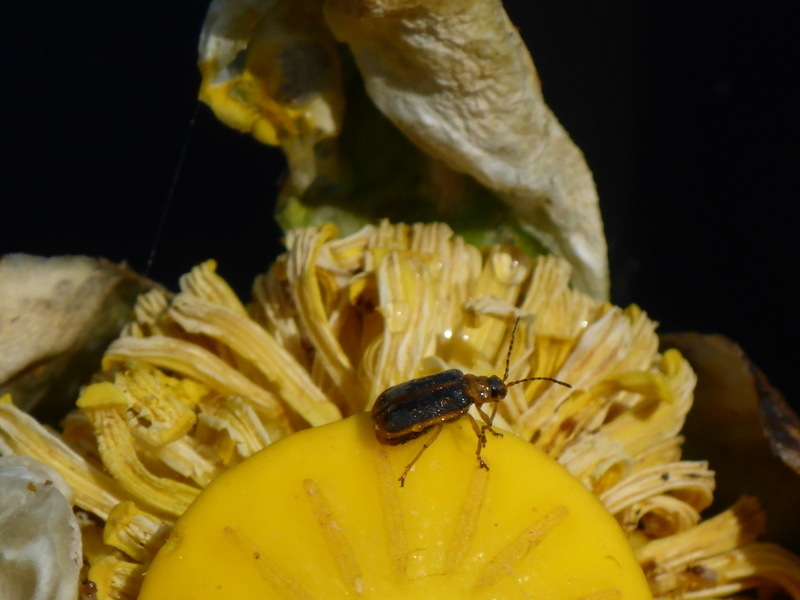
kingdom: Animalia
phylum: Arthropoda
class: Insecta
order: Coleoptera
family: Chrysomelidae
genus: Galerucella
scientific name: Galerucella nymphaeae
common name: Leaf beetle
